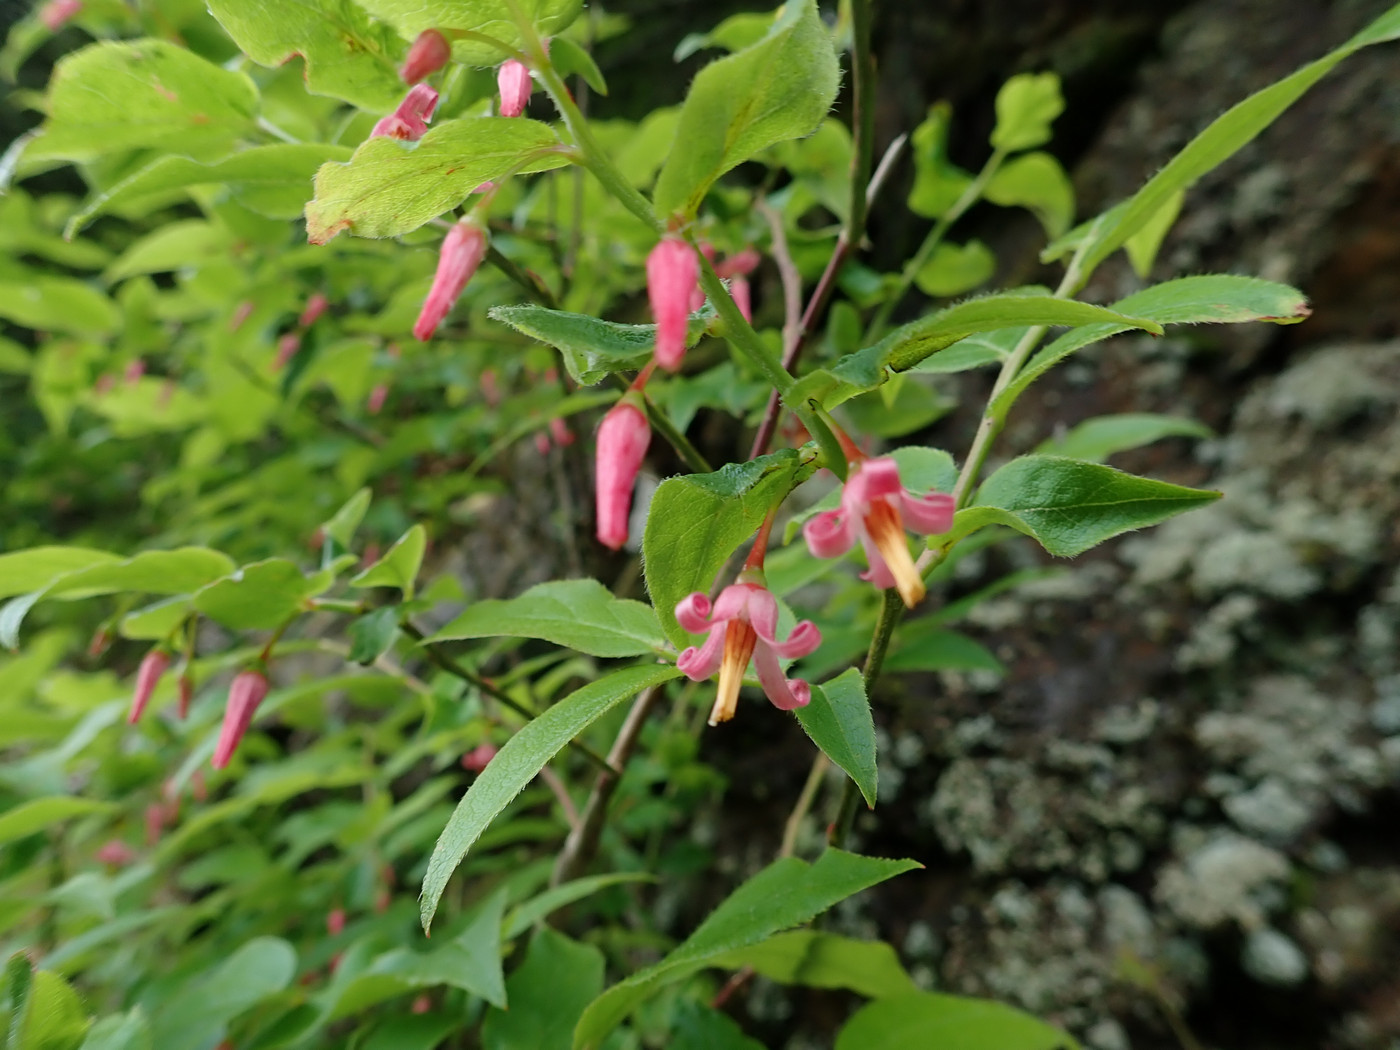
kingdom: Plantae
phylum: Tracheophyta
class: Magnoliopsida
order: Ericales
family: Ericaceae
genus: Vaccinium
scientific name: Vaccinium erythrocarpum
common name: Bearberry
